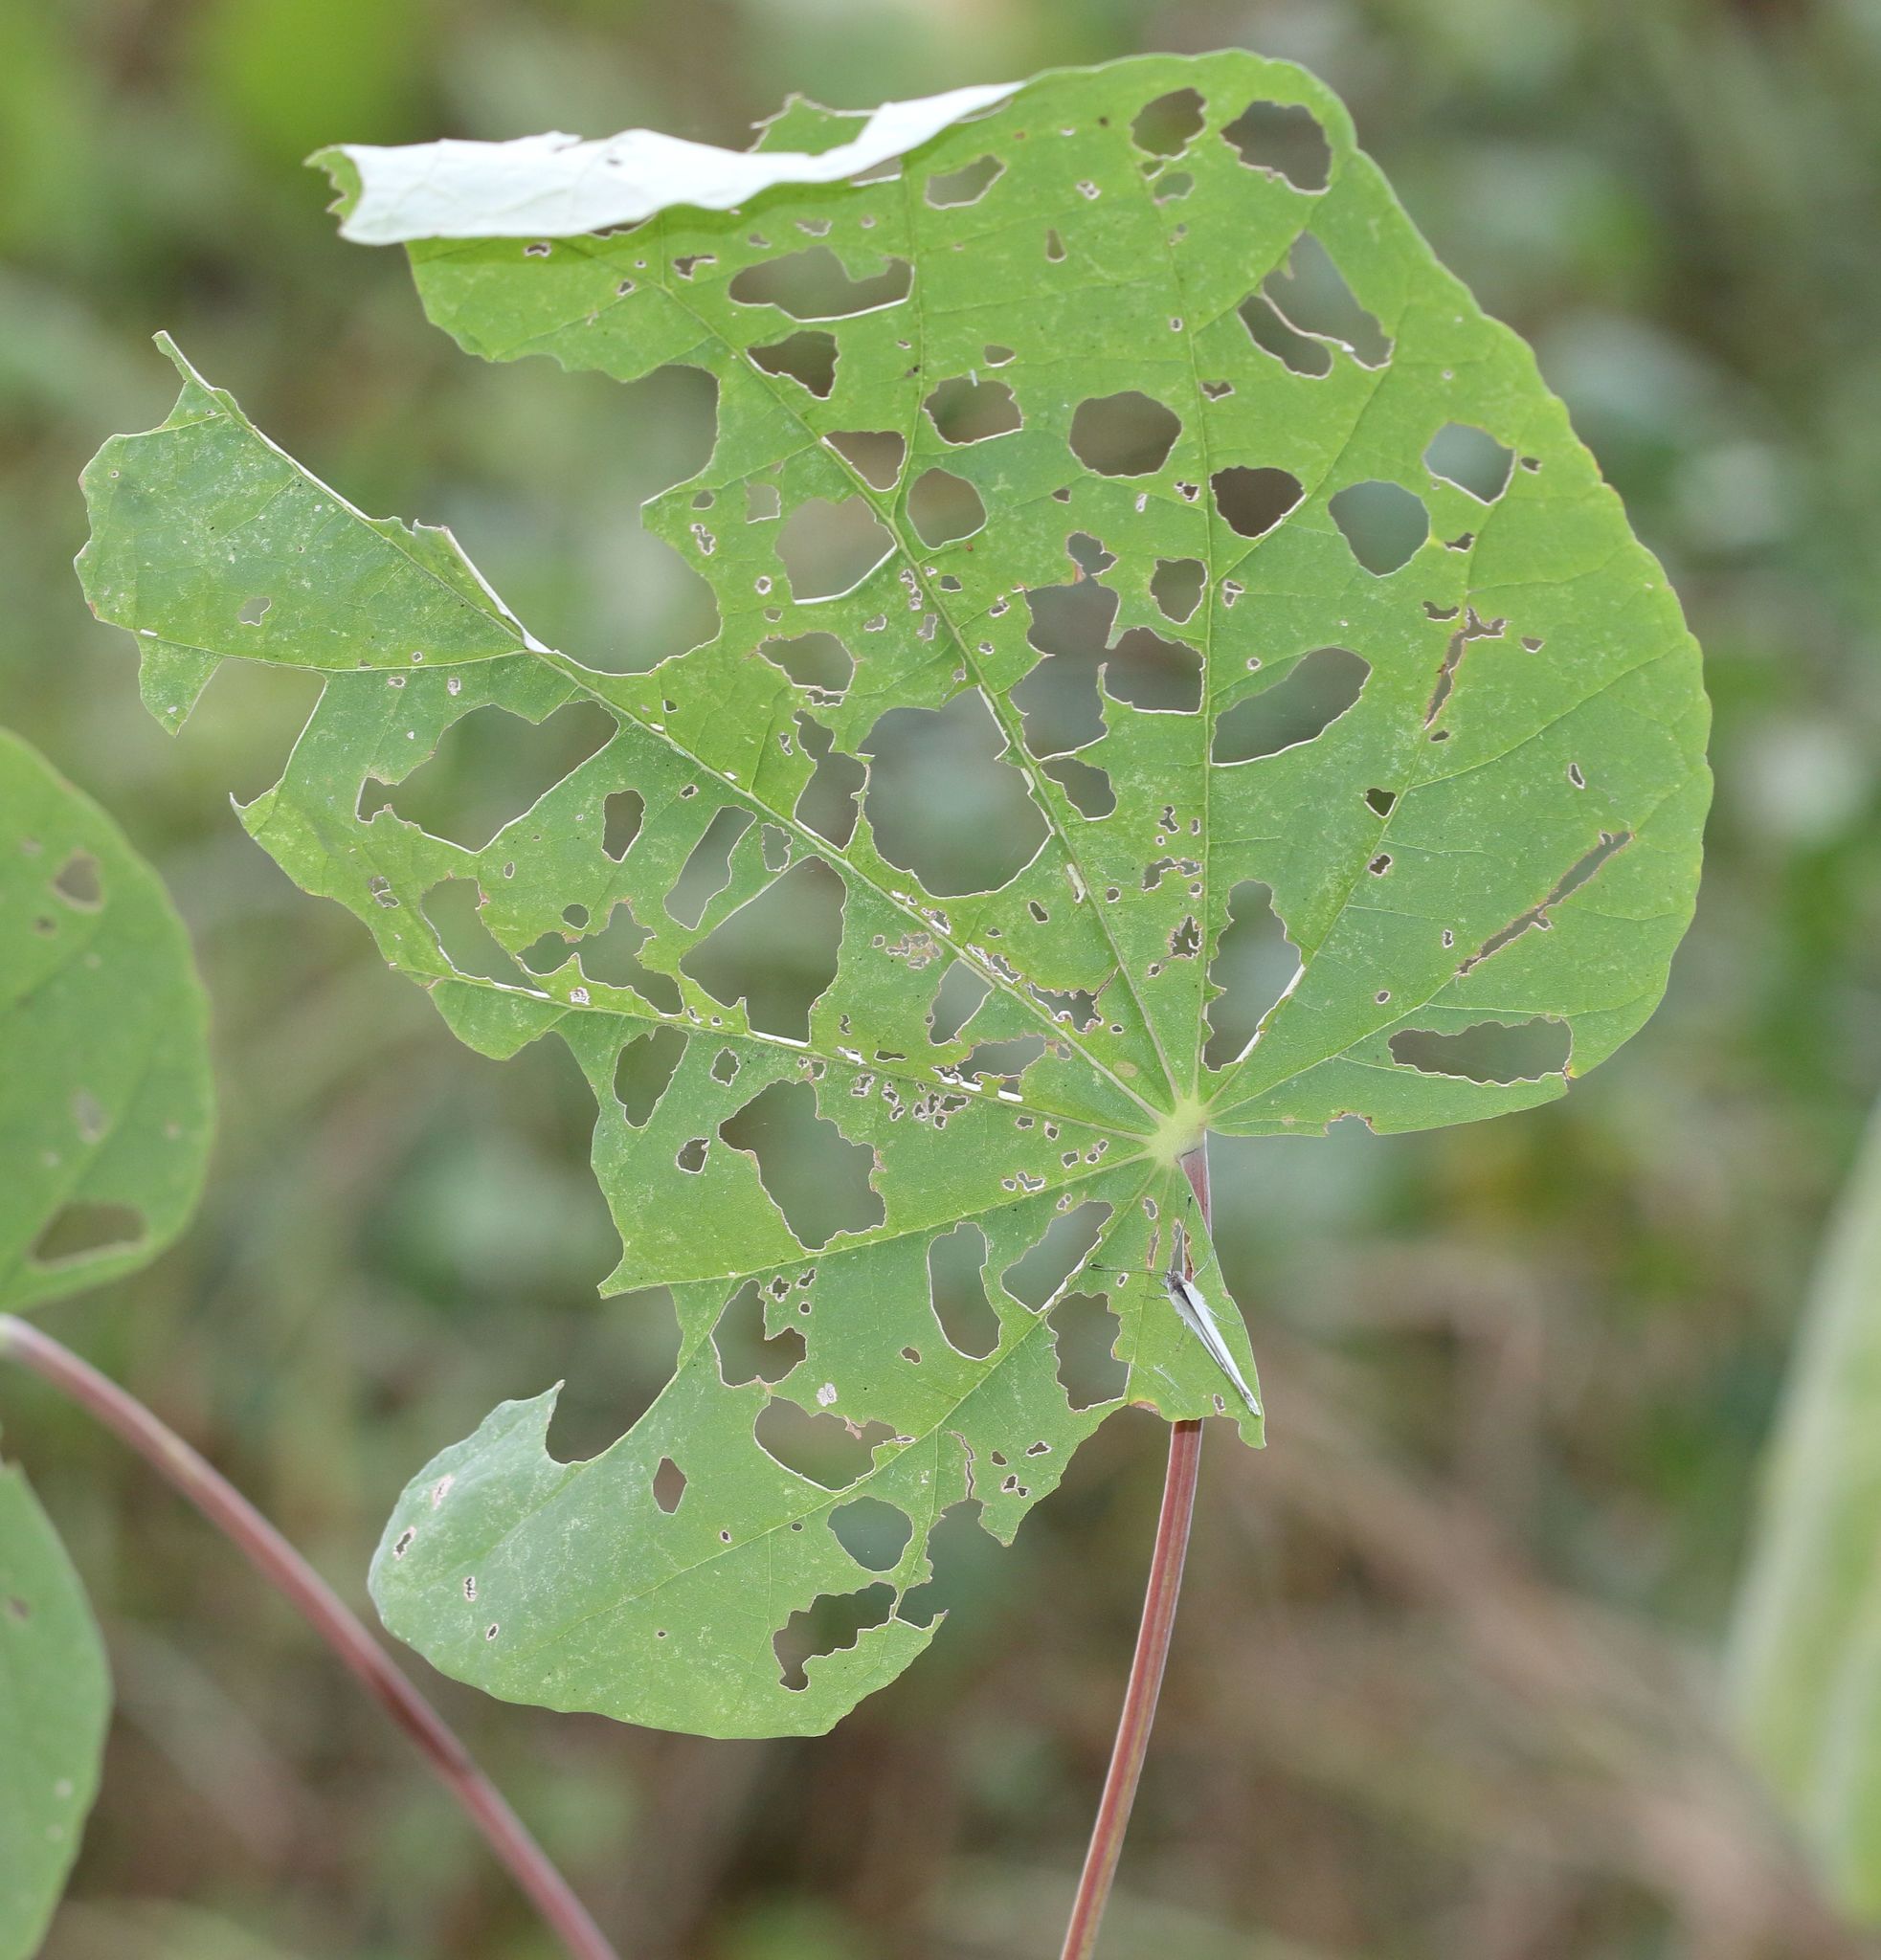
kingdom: Plantae
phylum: Tracheophyta
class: Magnoliopsida
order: Malvales
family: Malvaceae
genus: Abutilon
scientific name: Abutilon angulatum
